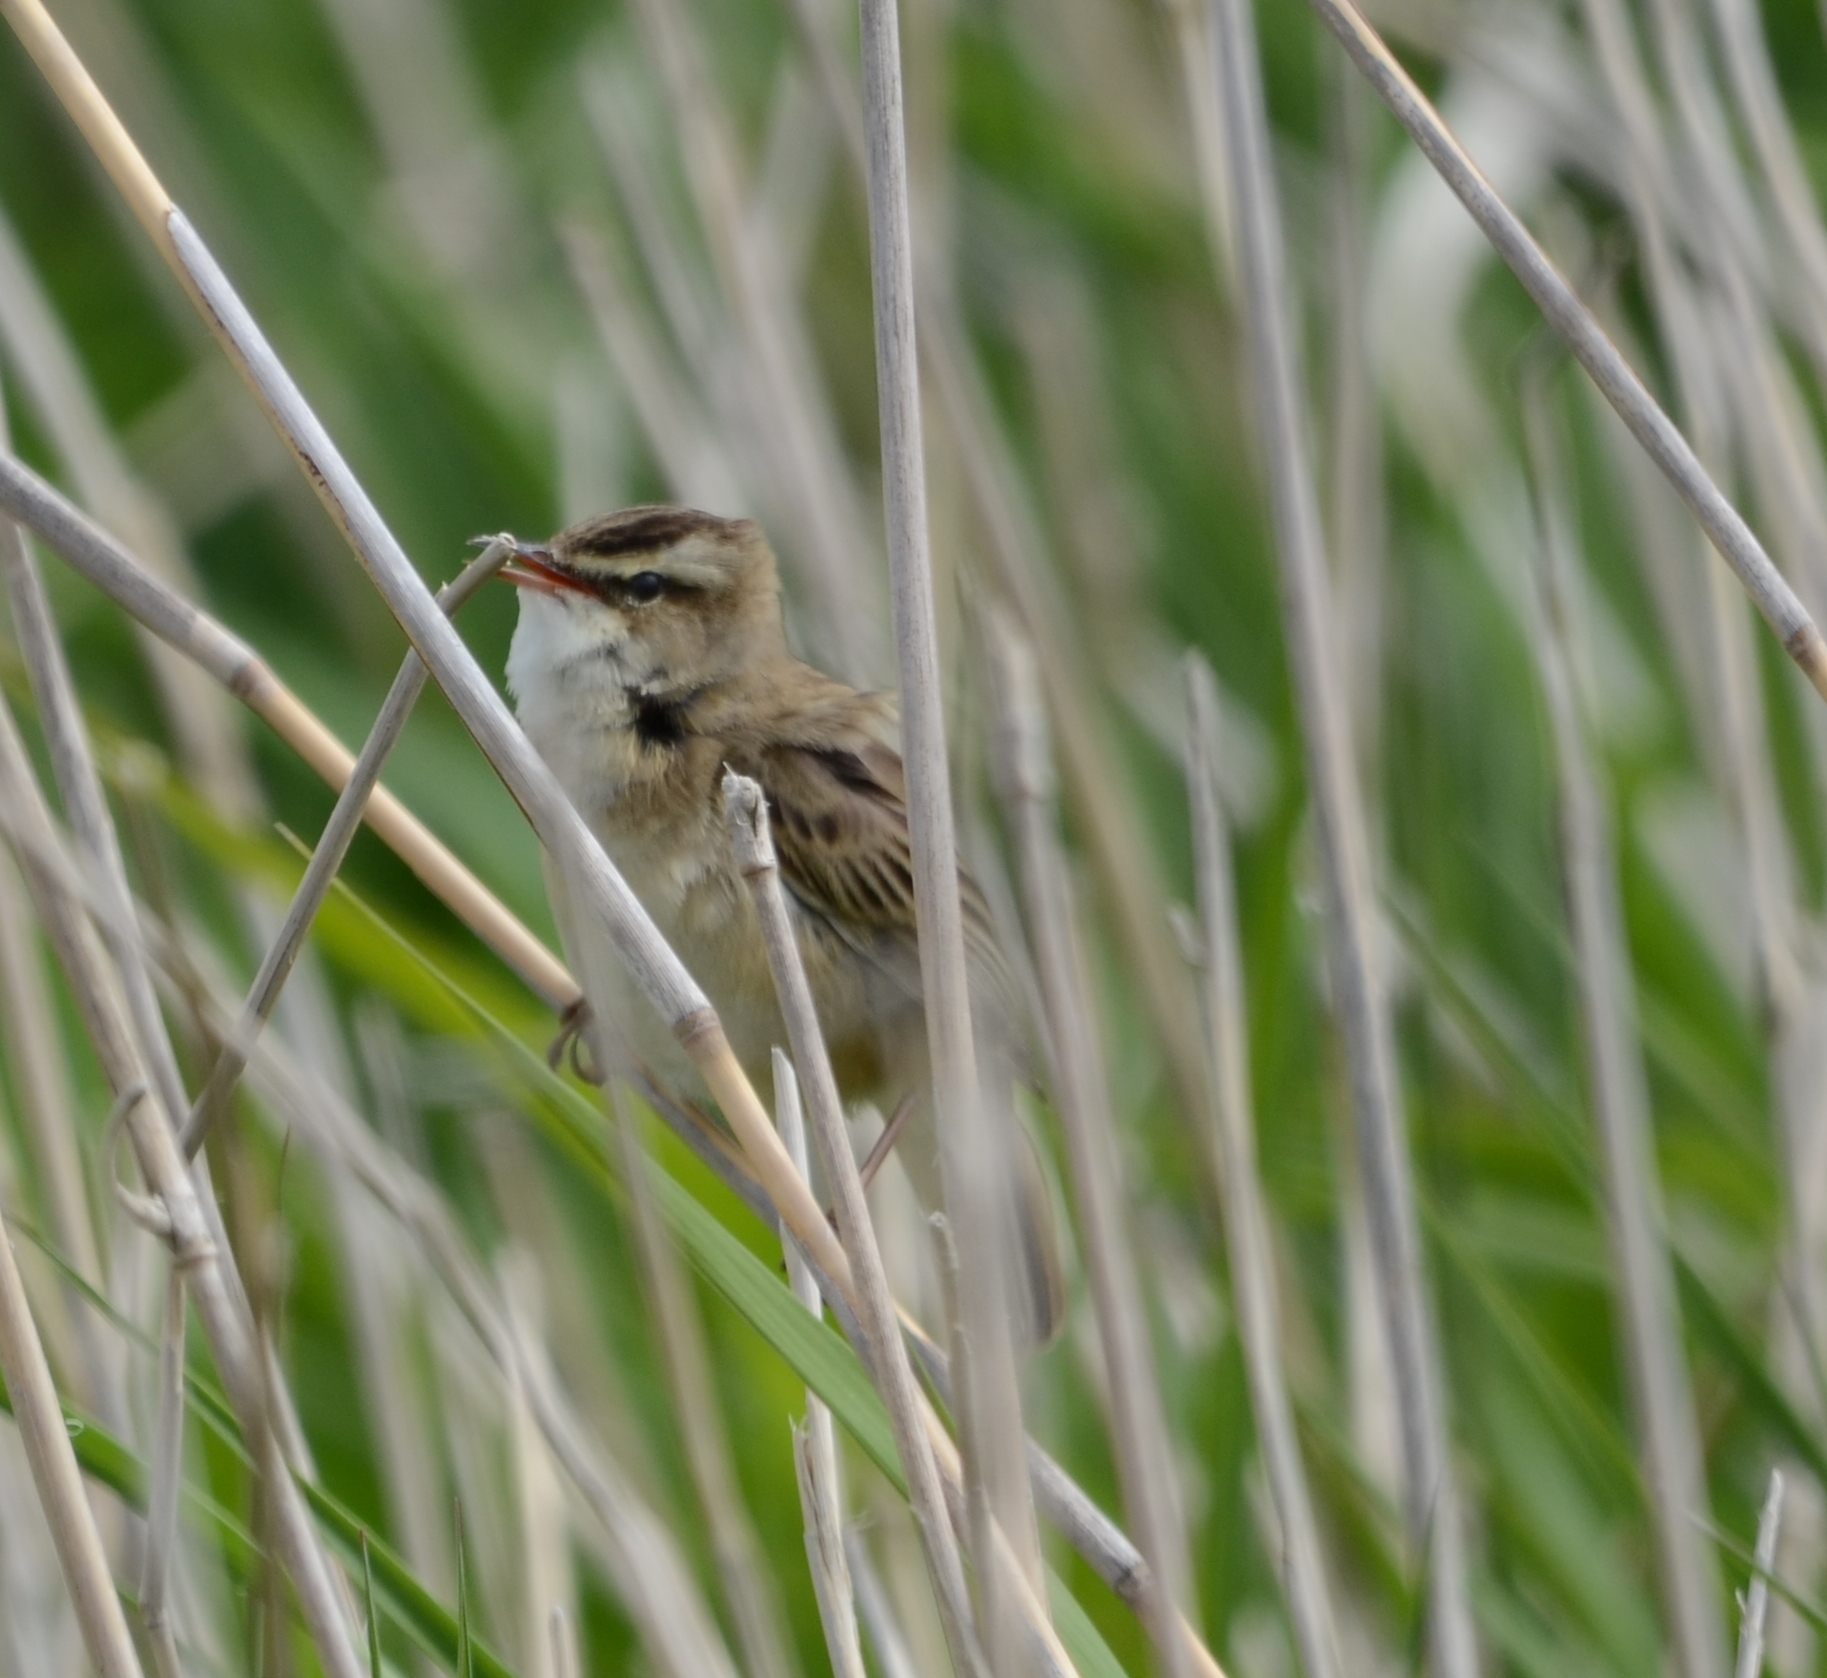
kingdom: Animalia
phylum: Chordata
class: Aves
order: Passeriformes
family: Acrocephalidae
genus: Acrocephalus
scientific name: Acrocephalus schoenobaenus
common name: Sedge warbler
